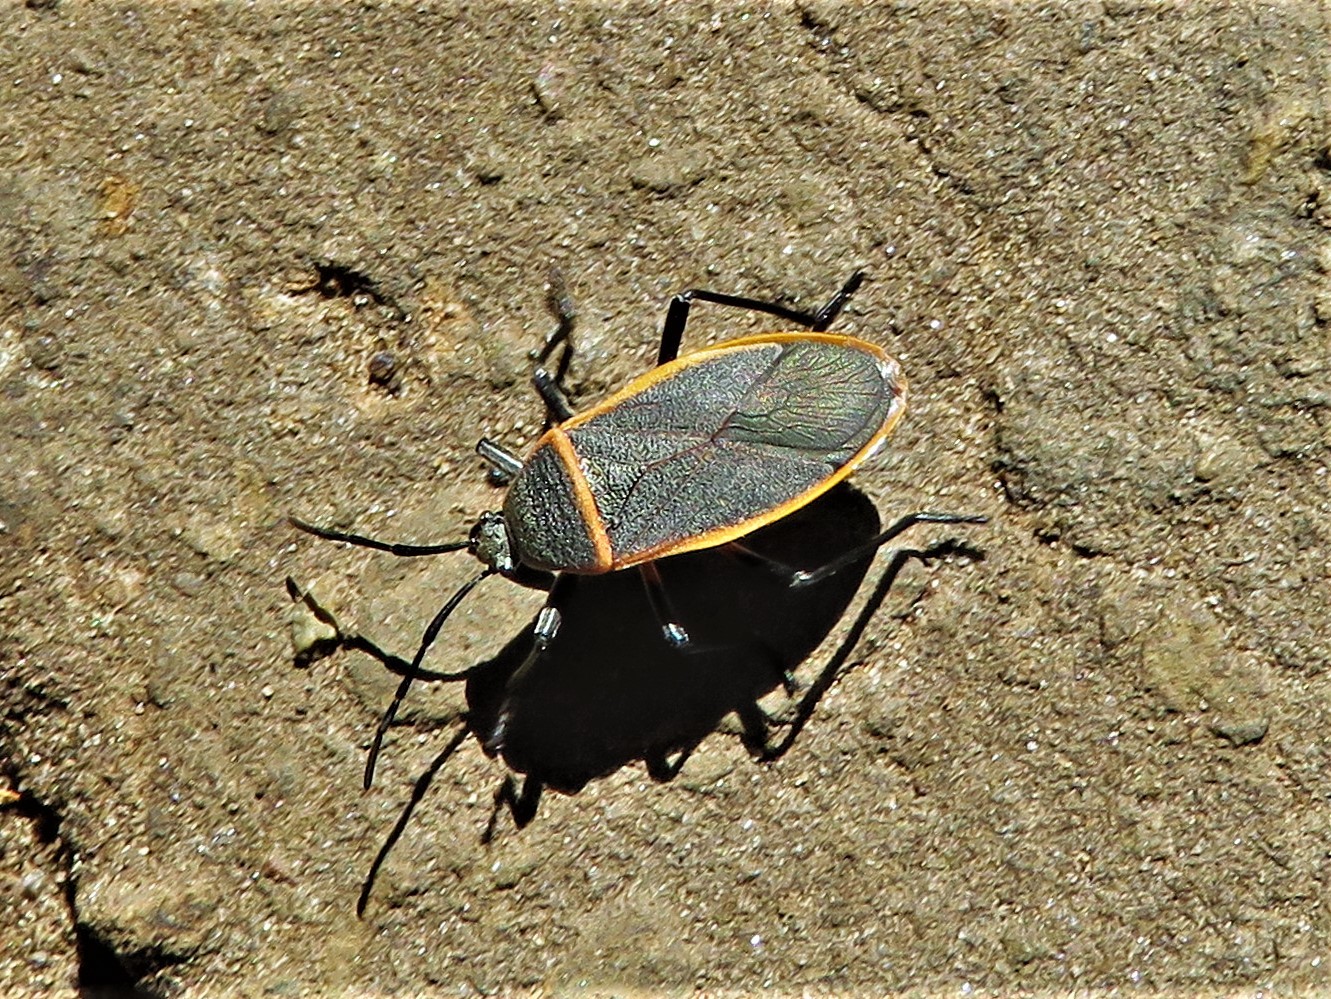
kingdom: Animalia
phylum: Arthropoda
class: Insecta
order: Hemiptera
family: Largidae
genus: Largus
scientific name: Largus succinctus
